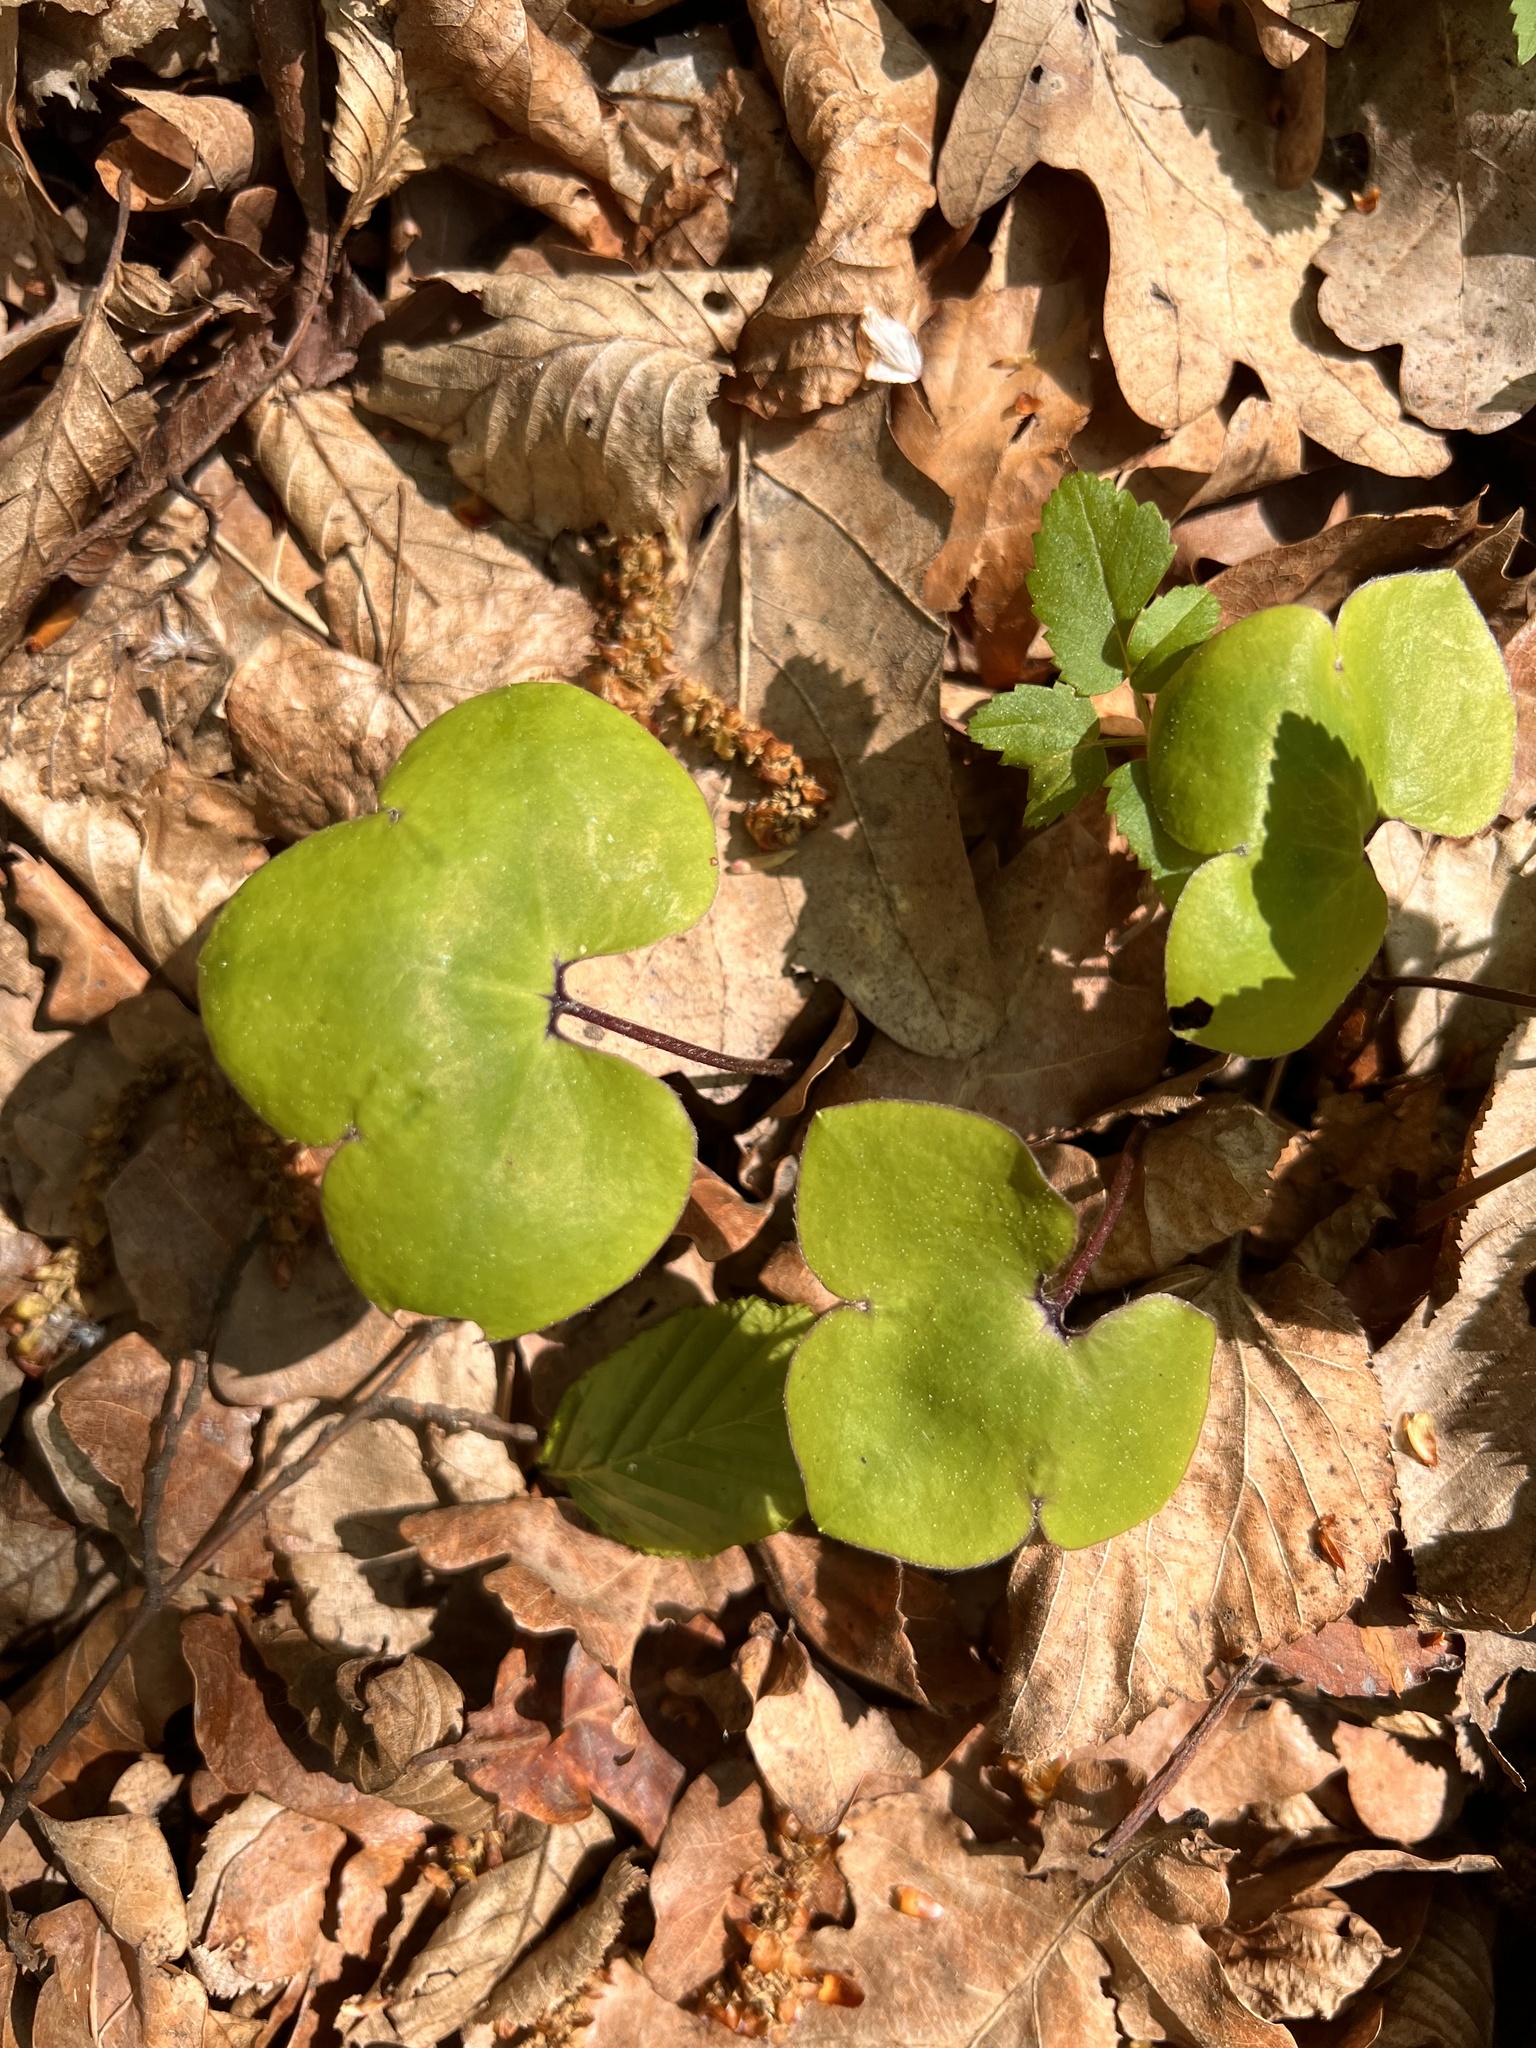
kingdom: Plantae
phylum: Tracheophyta
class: Magnoliopsida
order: Ranunculales
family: Ranunculaceae
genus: Hepatica
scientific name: Hepatica nobilis
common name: Liverleaf
